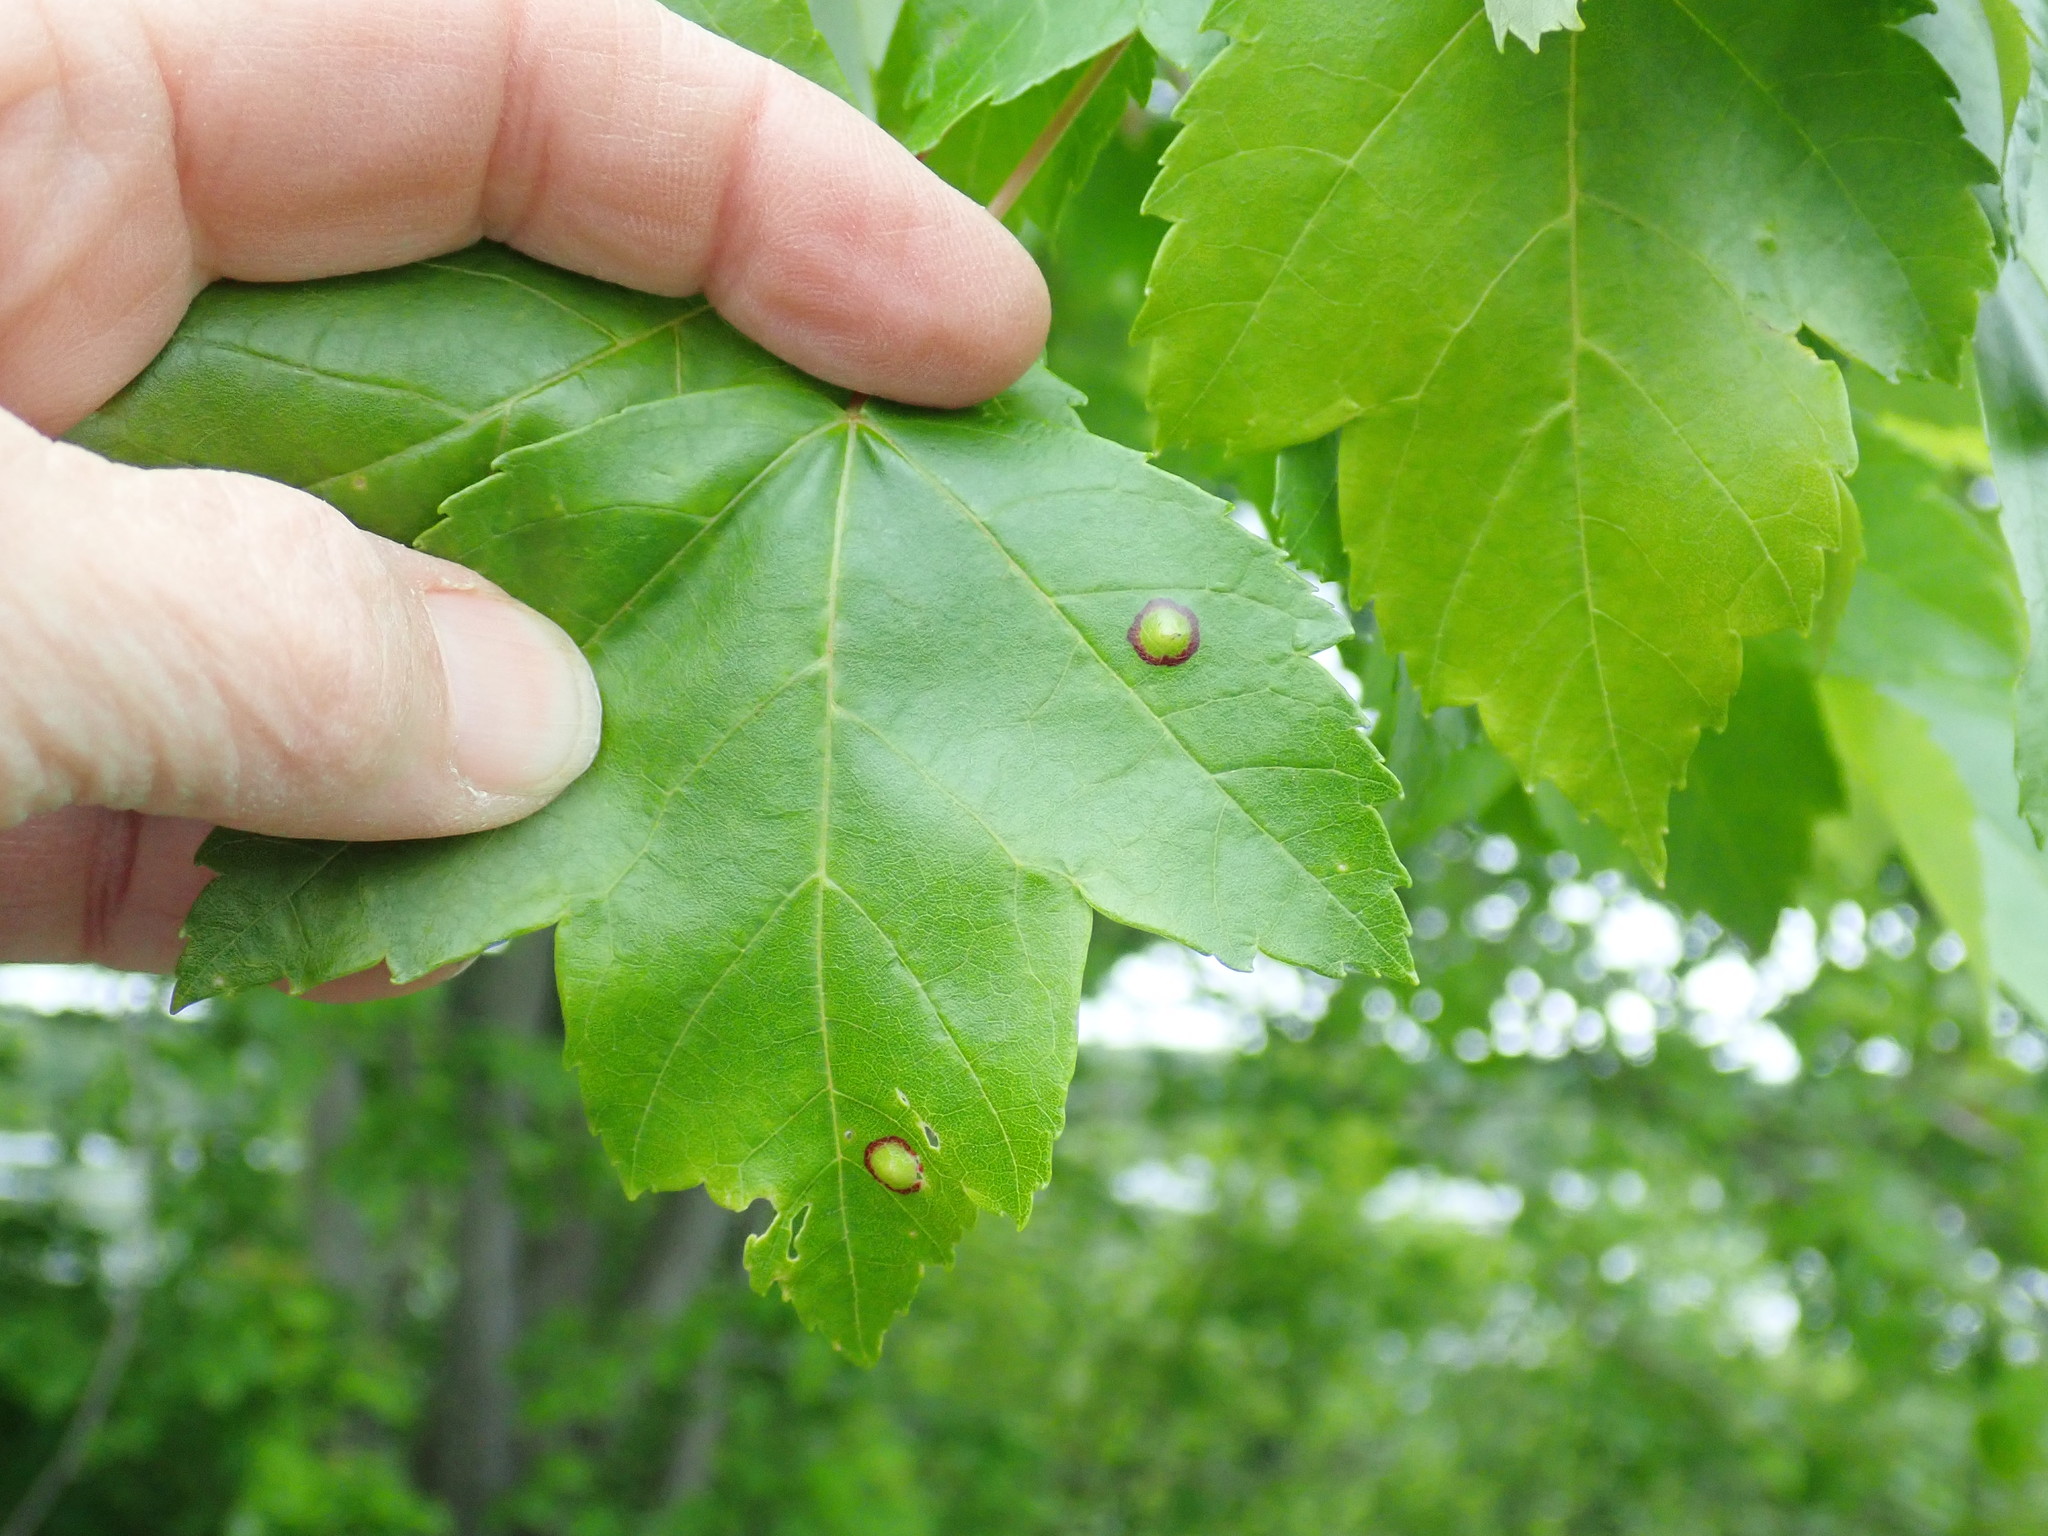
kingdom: Animalia
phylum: Arthropoda
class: Insecta
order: Diptera
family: Cecidomyiidae
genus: Acericecis
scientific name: Acericecis ocellaris
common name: Ocellate gall midge
